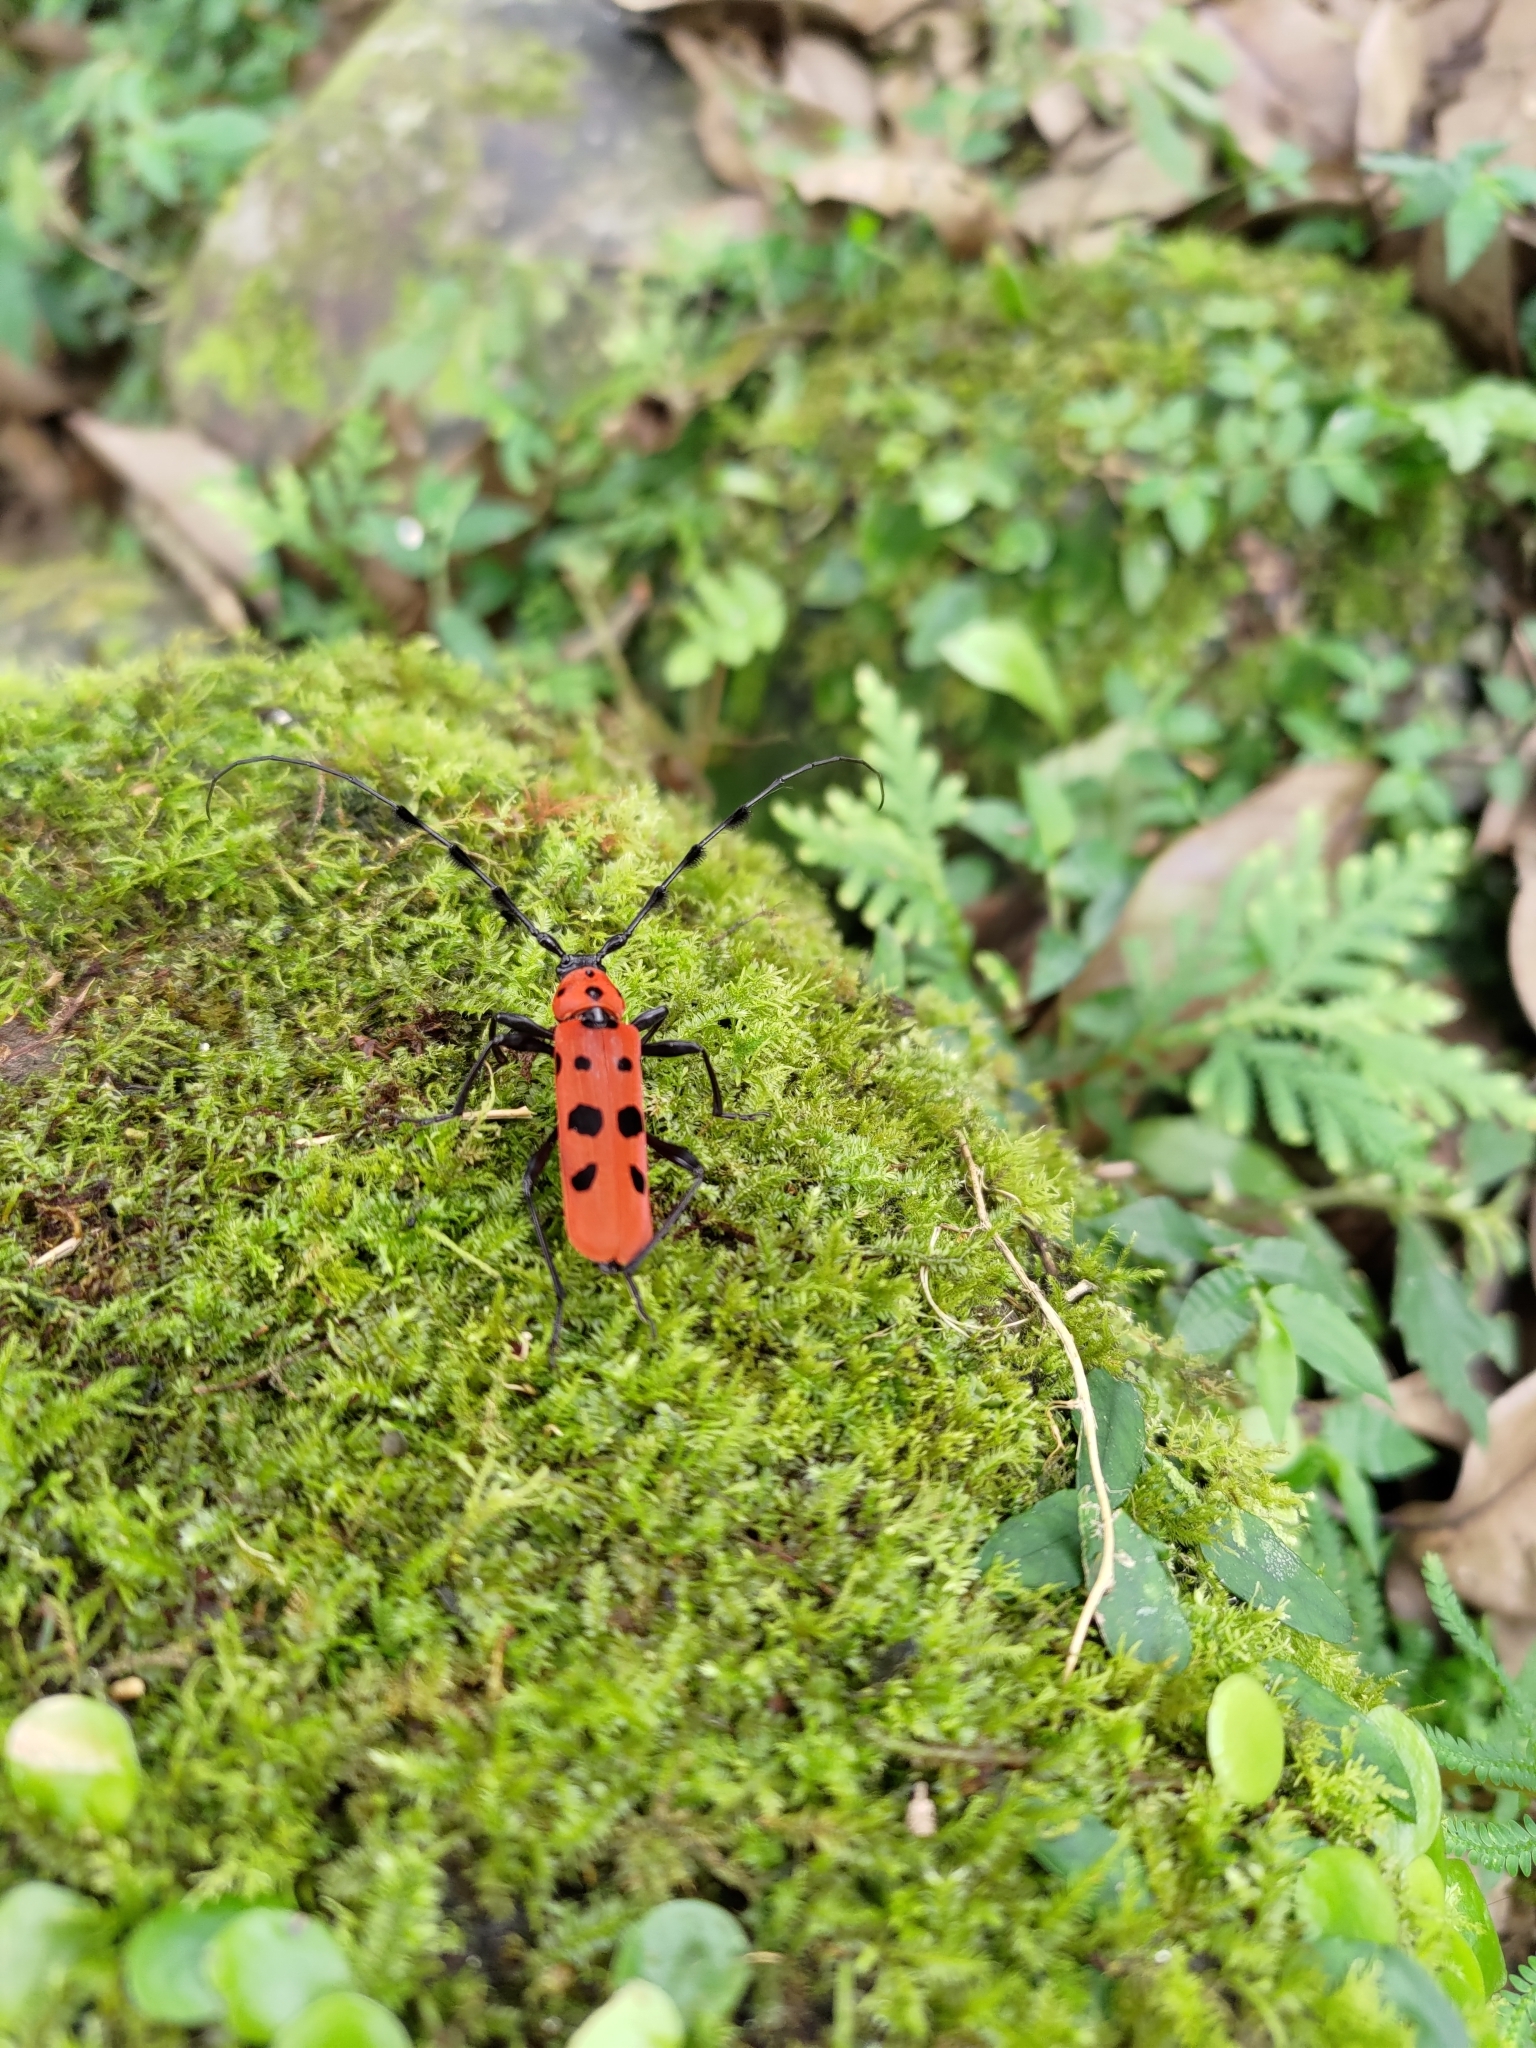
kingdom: Animalia
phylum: Arthropoda
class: Insecta
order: Coleoptera
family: Cerambycidae
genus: Rosalia
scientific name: Rosalia lesnei
